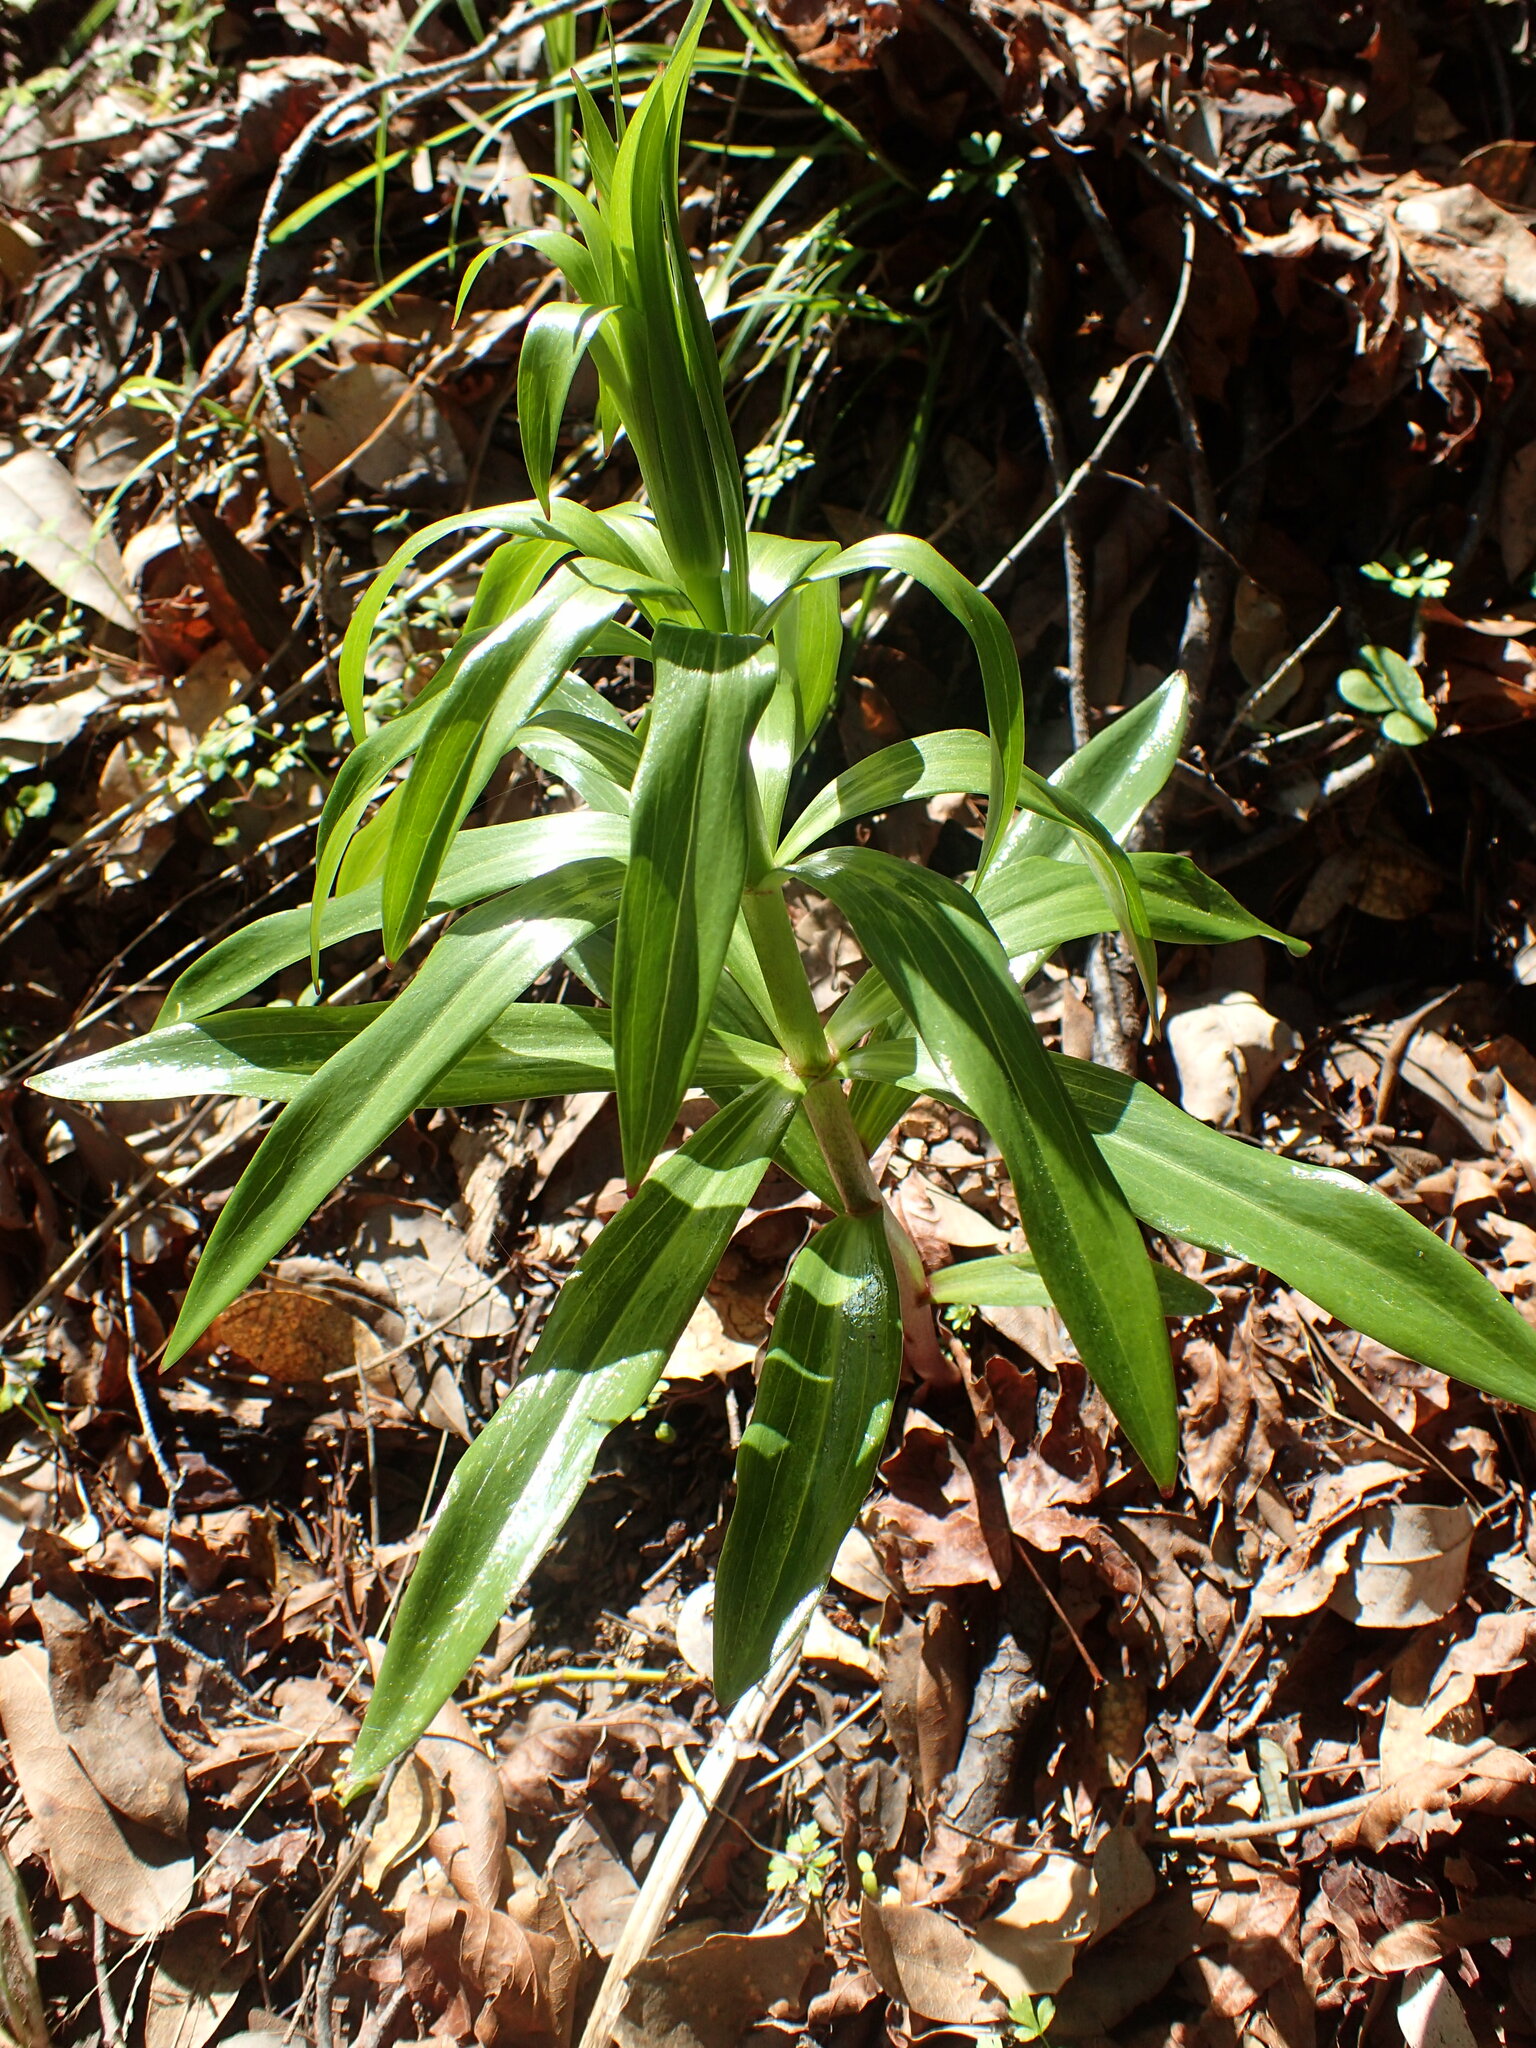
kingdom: Plantae
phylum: Tracheophyta
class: Liliopsida
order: Liliales
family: Liliaceae
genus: Lilium
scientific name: Lilium humboldtii
